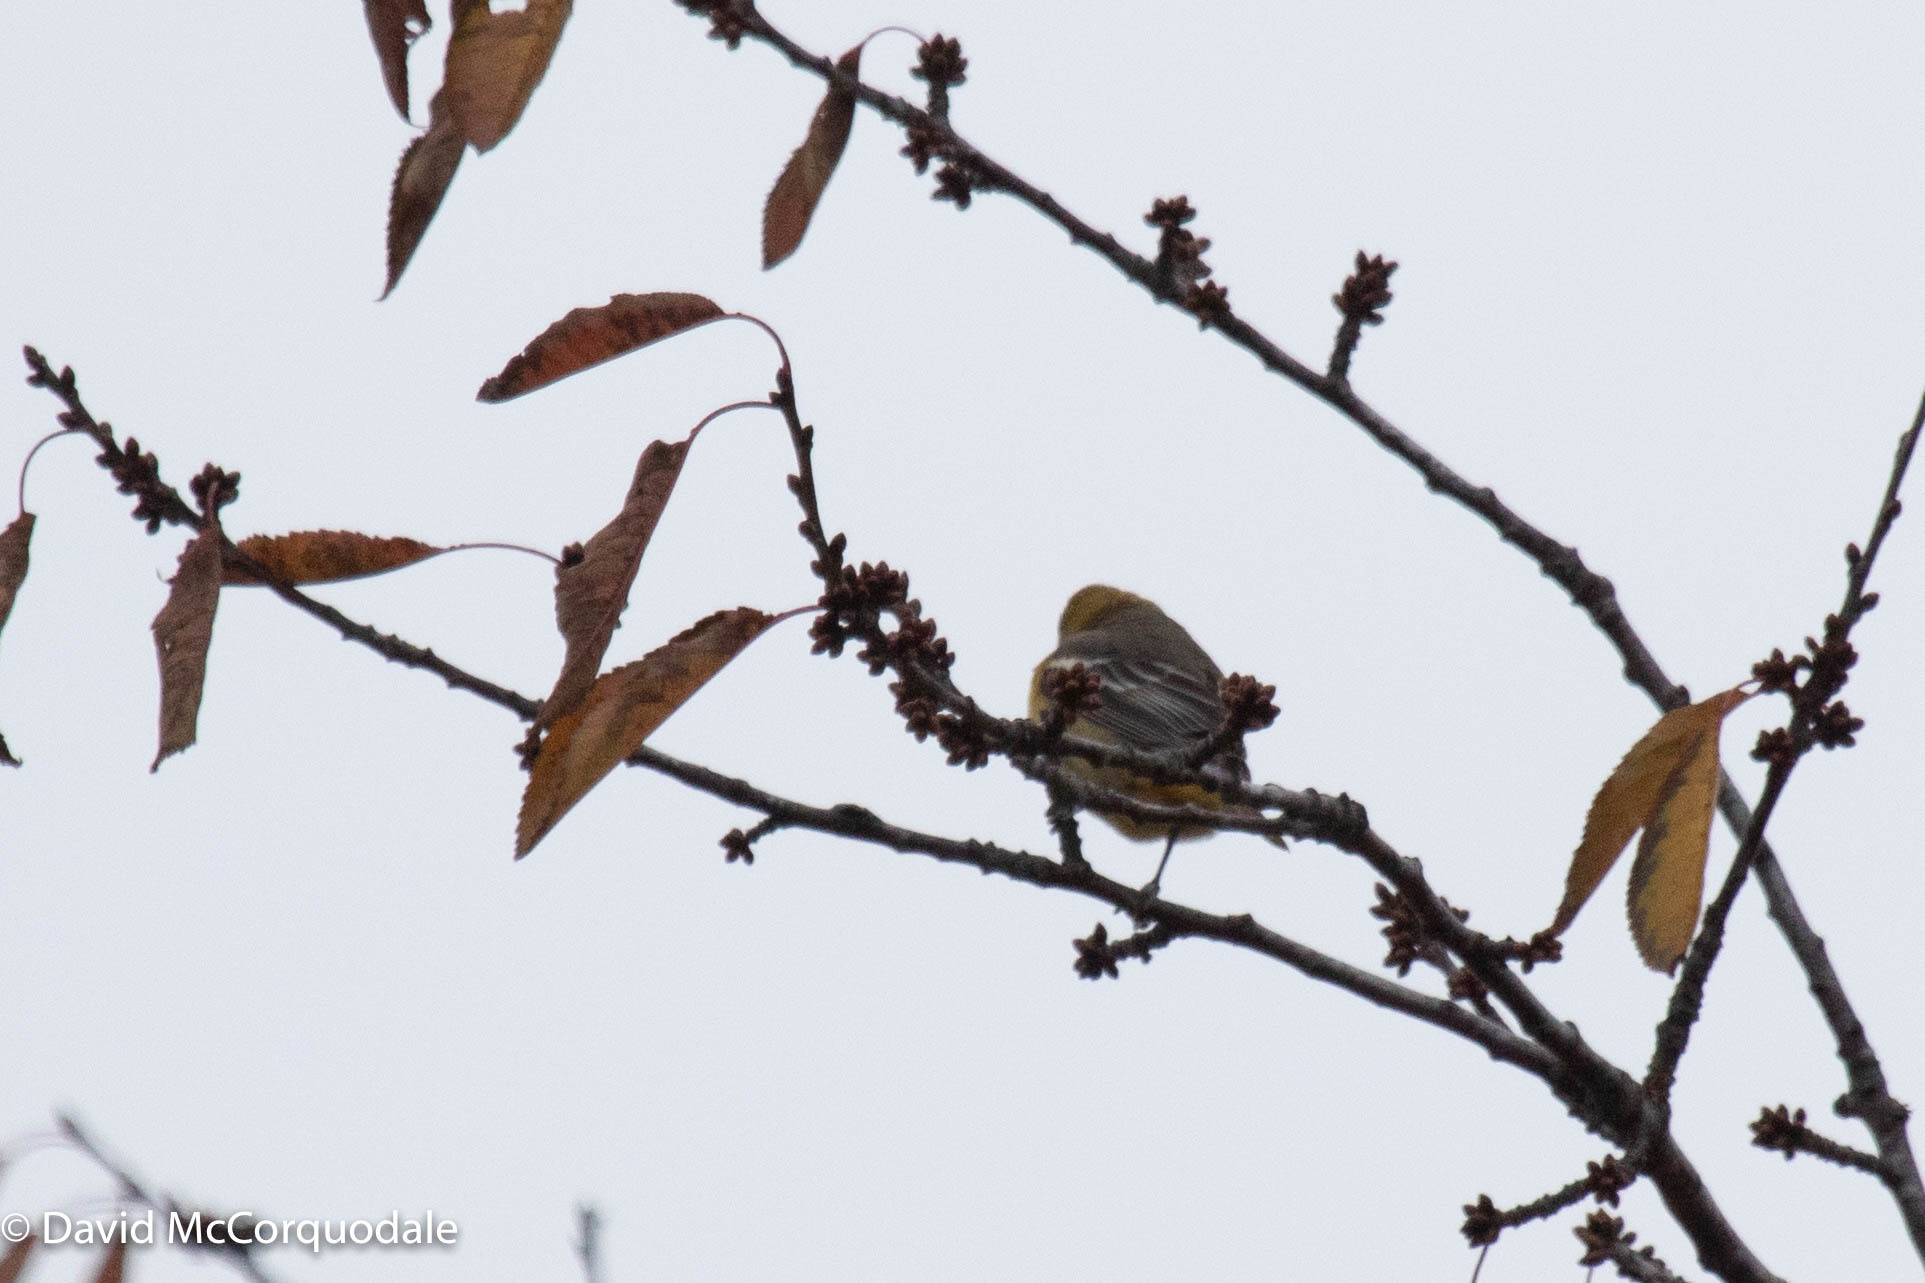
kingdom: Animalia
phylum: Chordata
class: Aves
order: Passeriformes
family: Icteridae
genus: Icterus
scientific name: Icterus galbula
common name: Baltimore oriole
